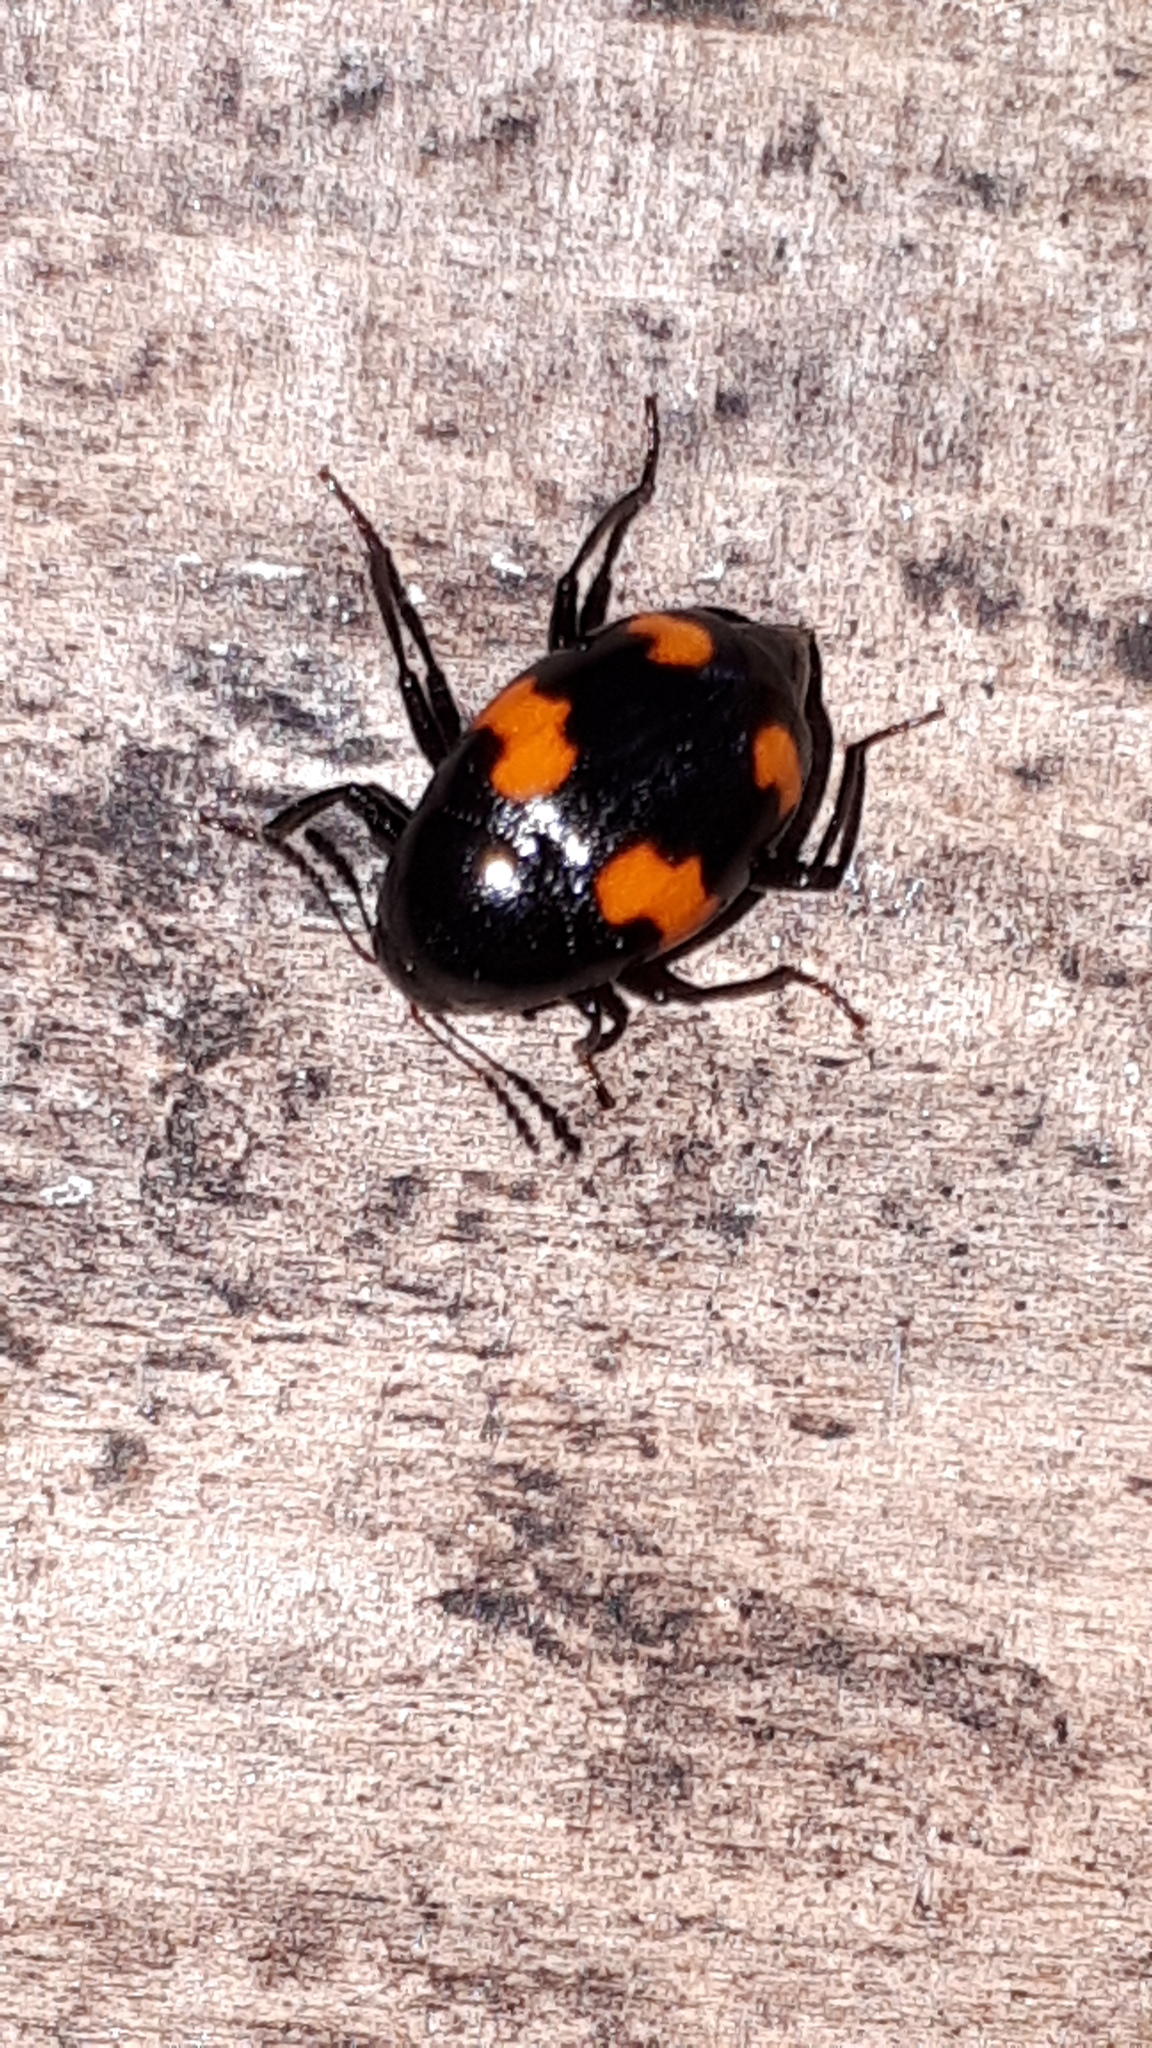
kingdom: Animalia
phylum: Arthropoda
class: Insecta
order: Coleoptera
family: Staphylinidae
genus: Scaphidium
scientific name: Scaphidium quadrimaculatum
